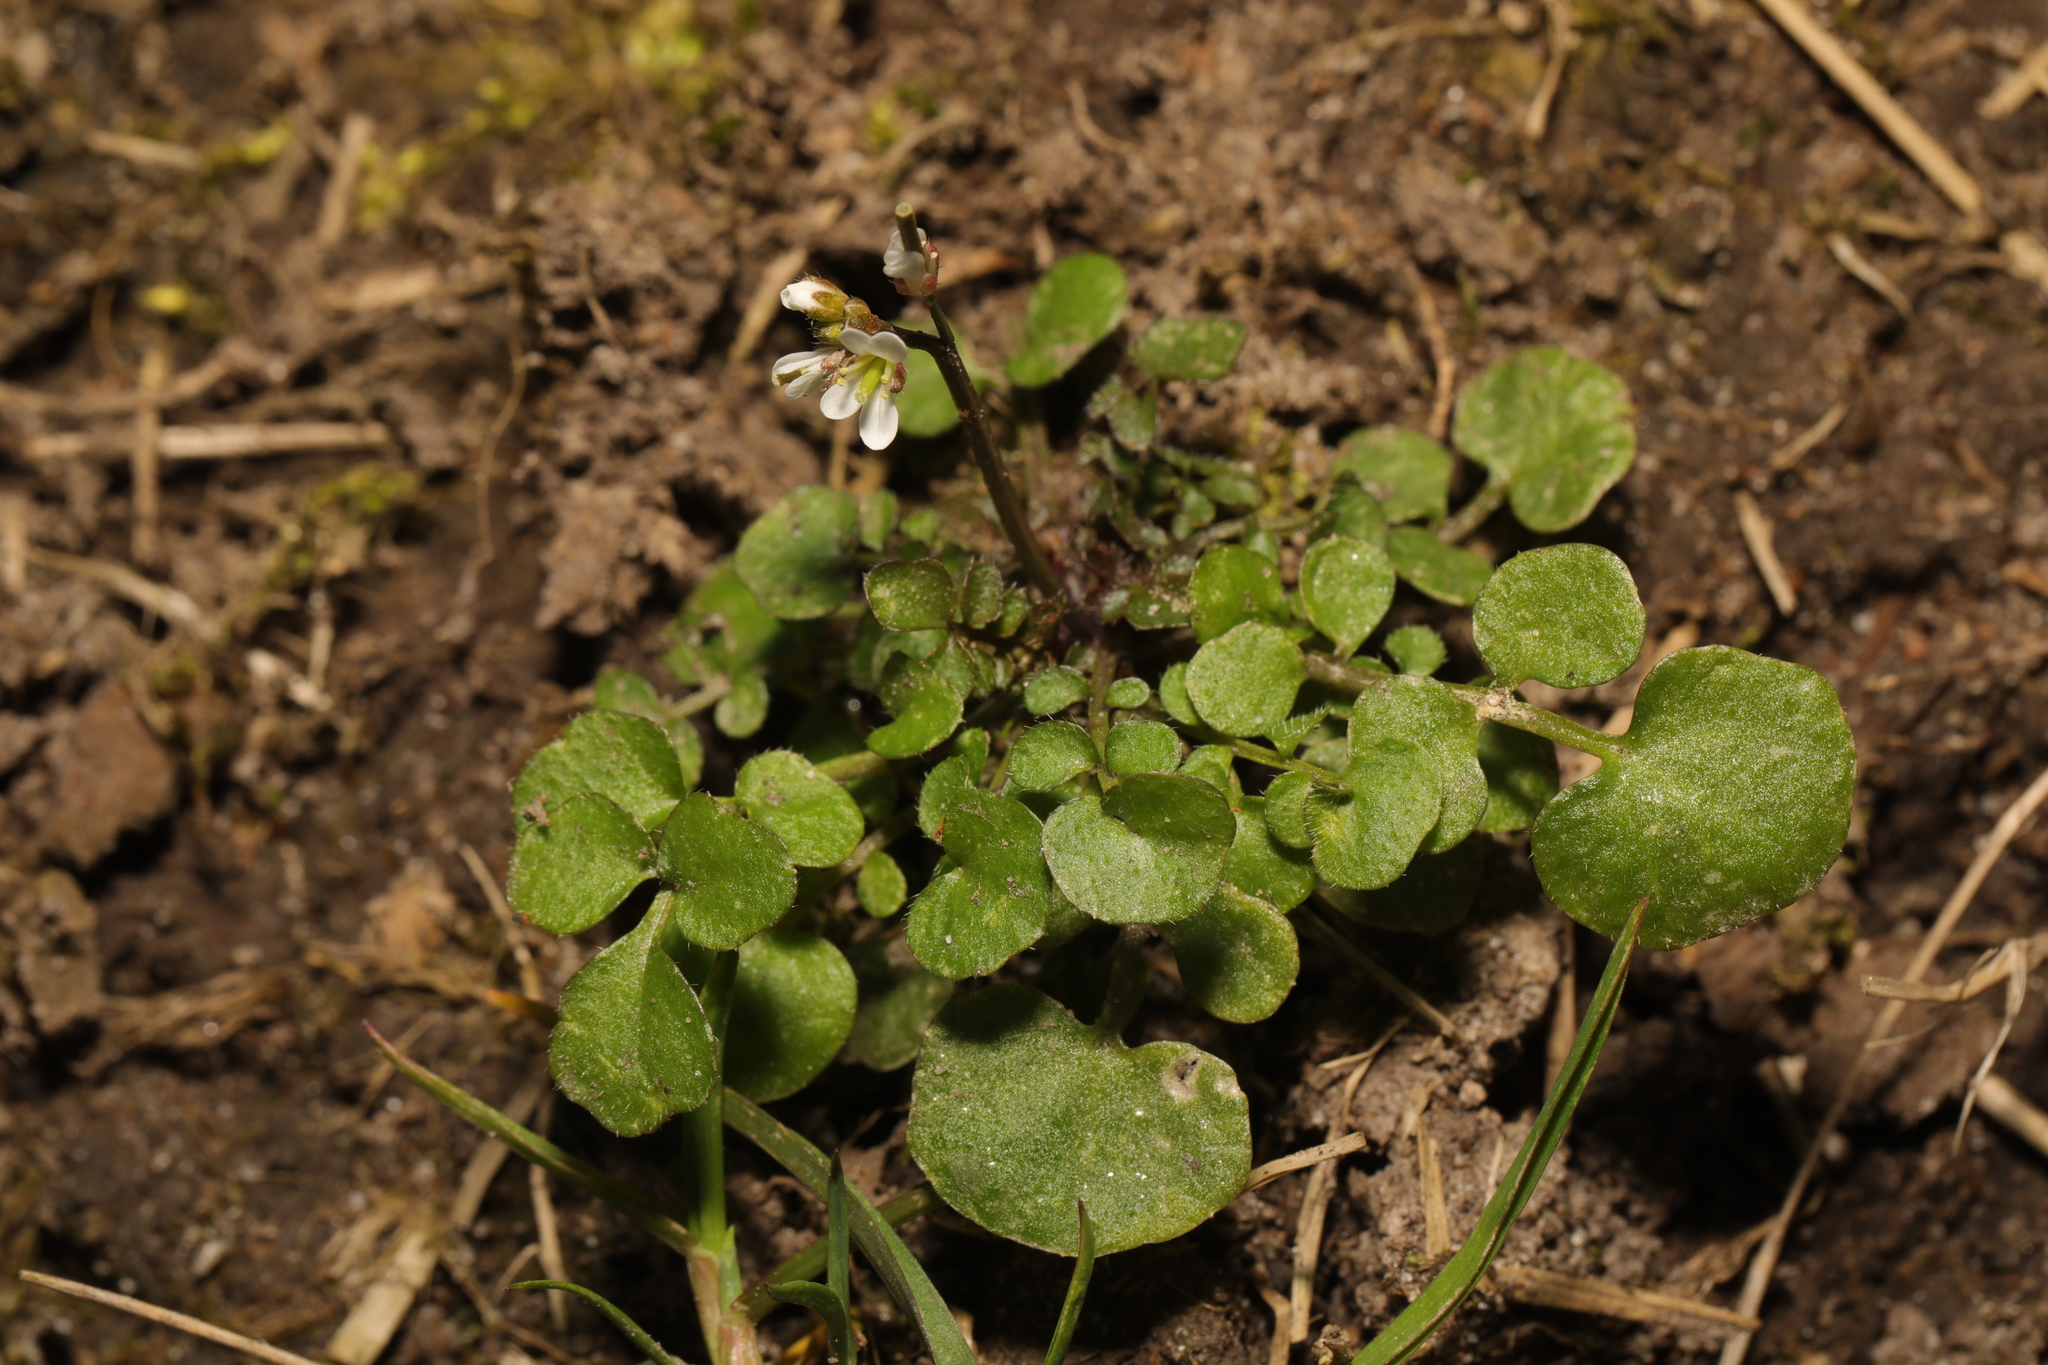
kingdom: Plantae
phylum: Tracheophyta
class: Magnoliopsida
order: Brassicales
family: Brassicaceae
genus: Cardamine
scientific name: Cardamine hirsuta
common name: Hairy bittercress
